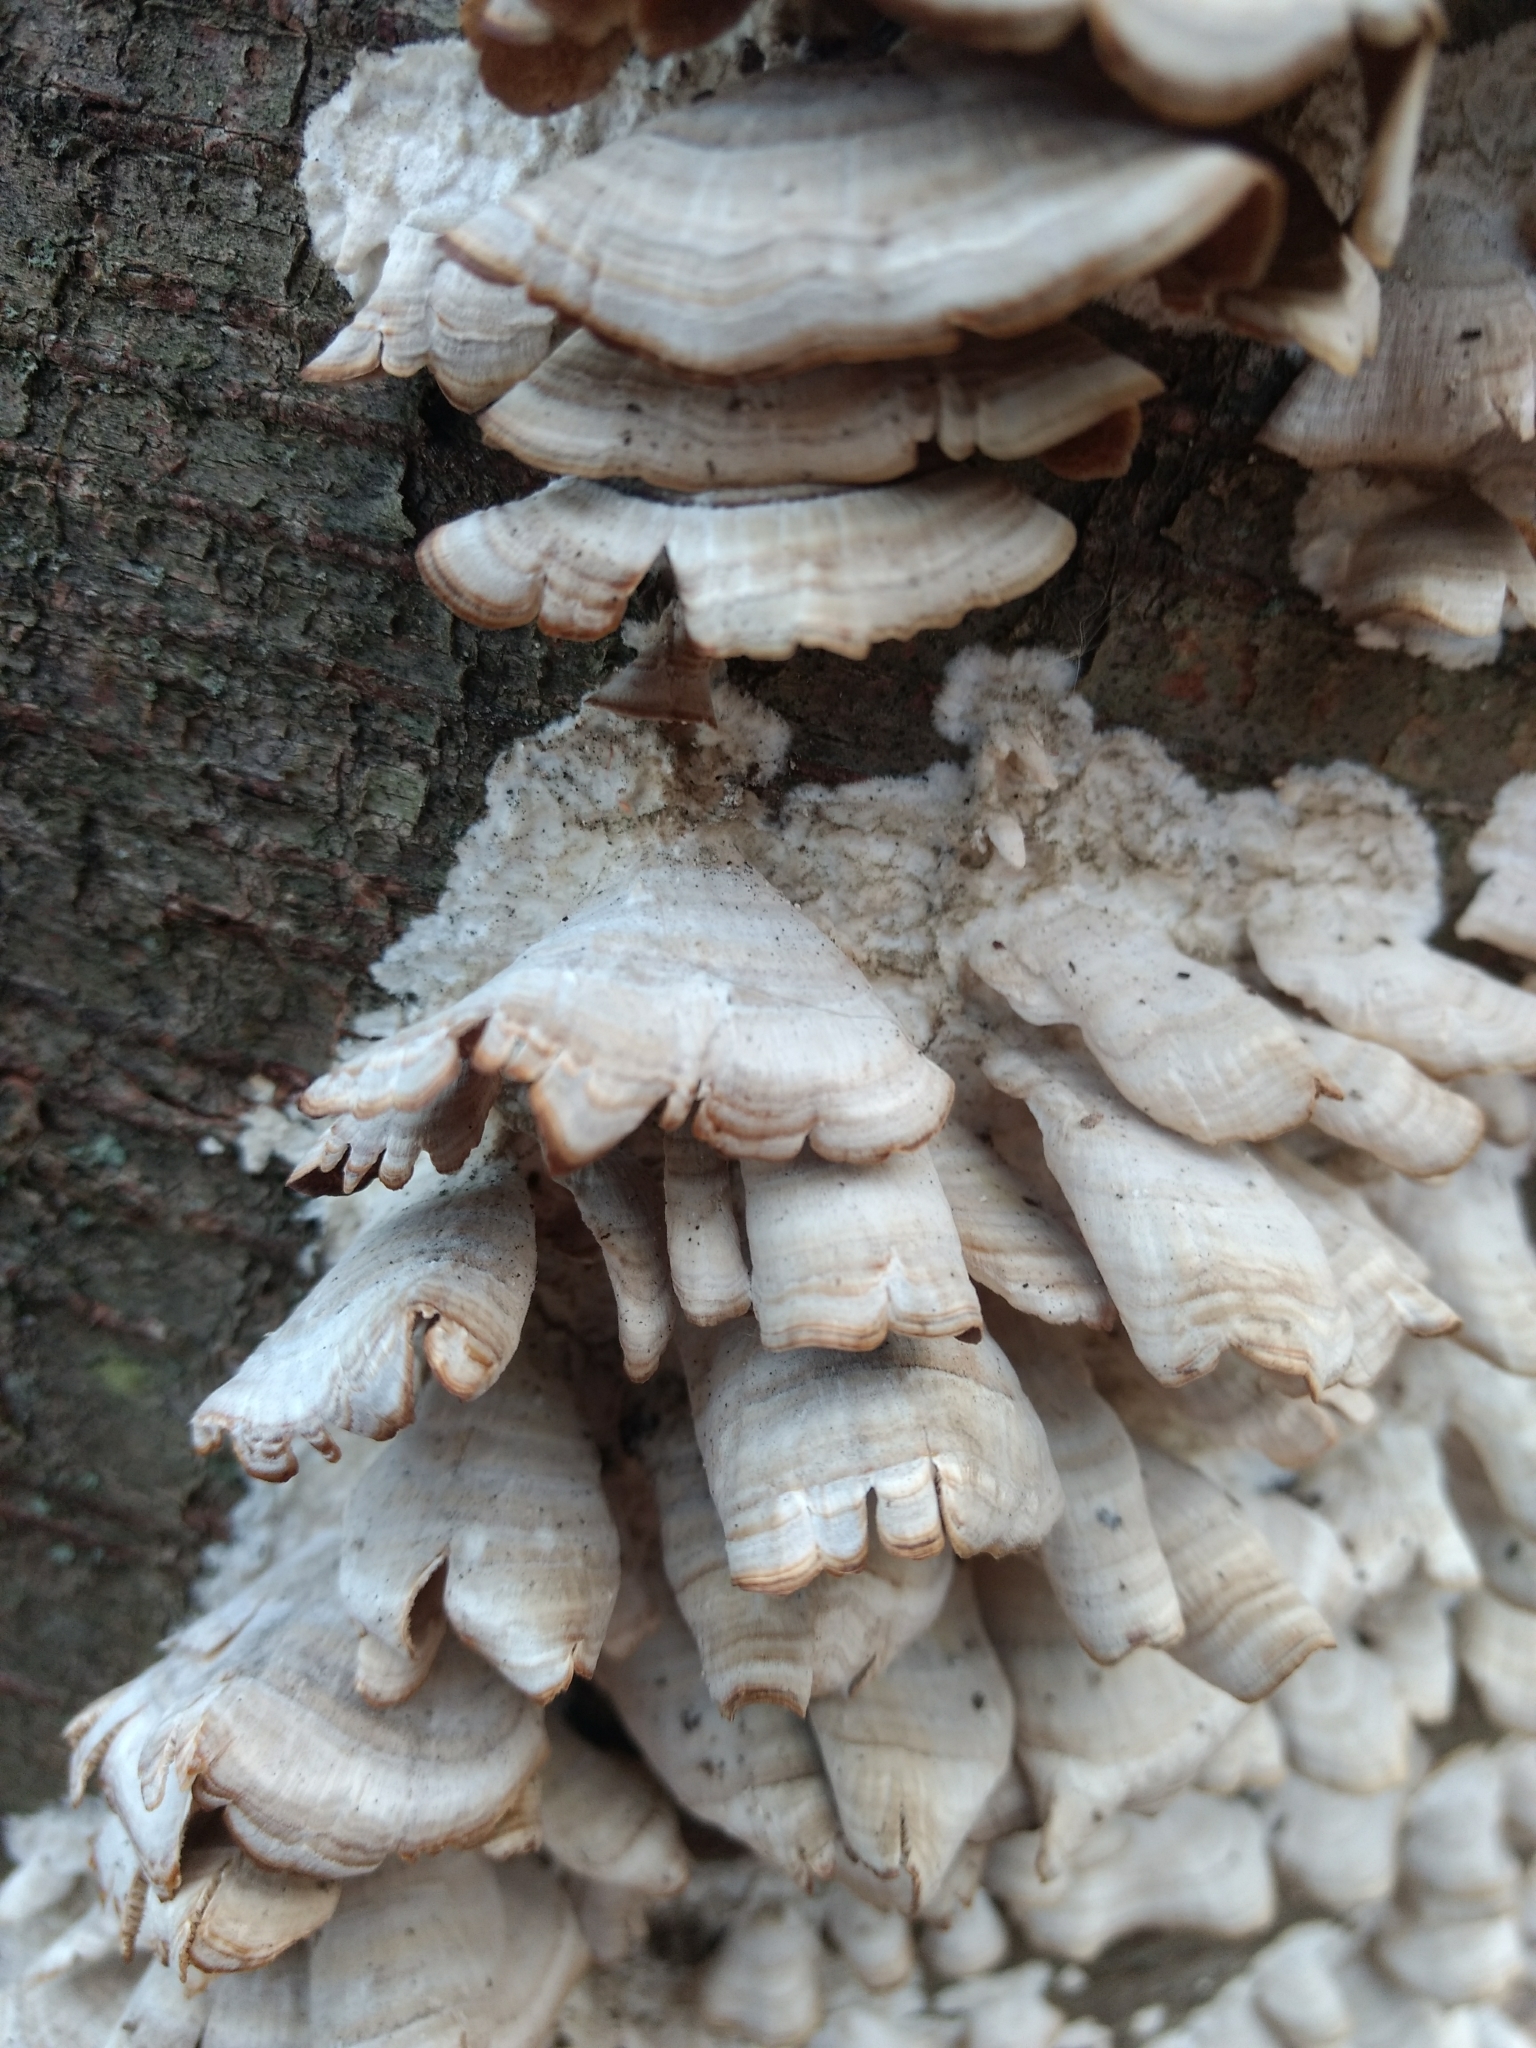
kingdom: Fungi
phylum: Basidiomycota
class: Agaricomycetes
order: Hymenochaetales
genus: Trichaptum
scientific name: Trichaptum biforme
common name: Violet-toothed polypore
